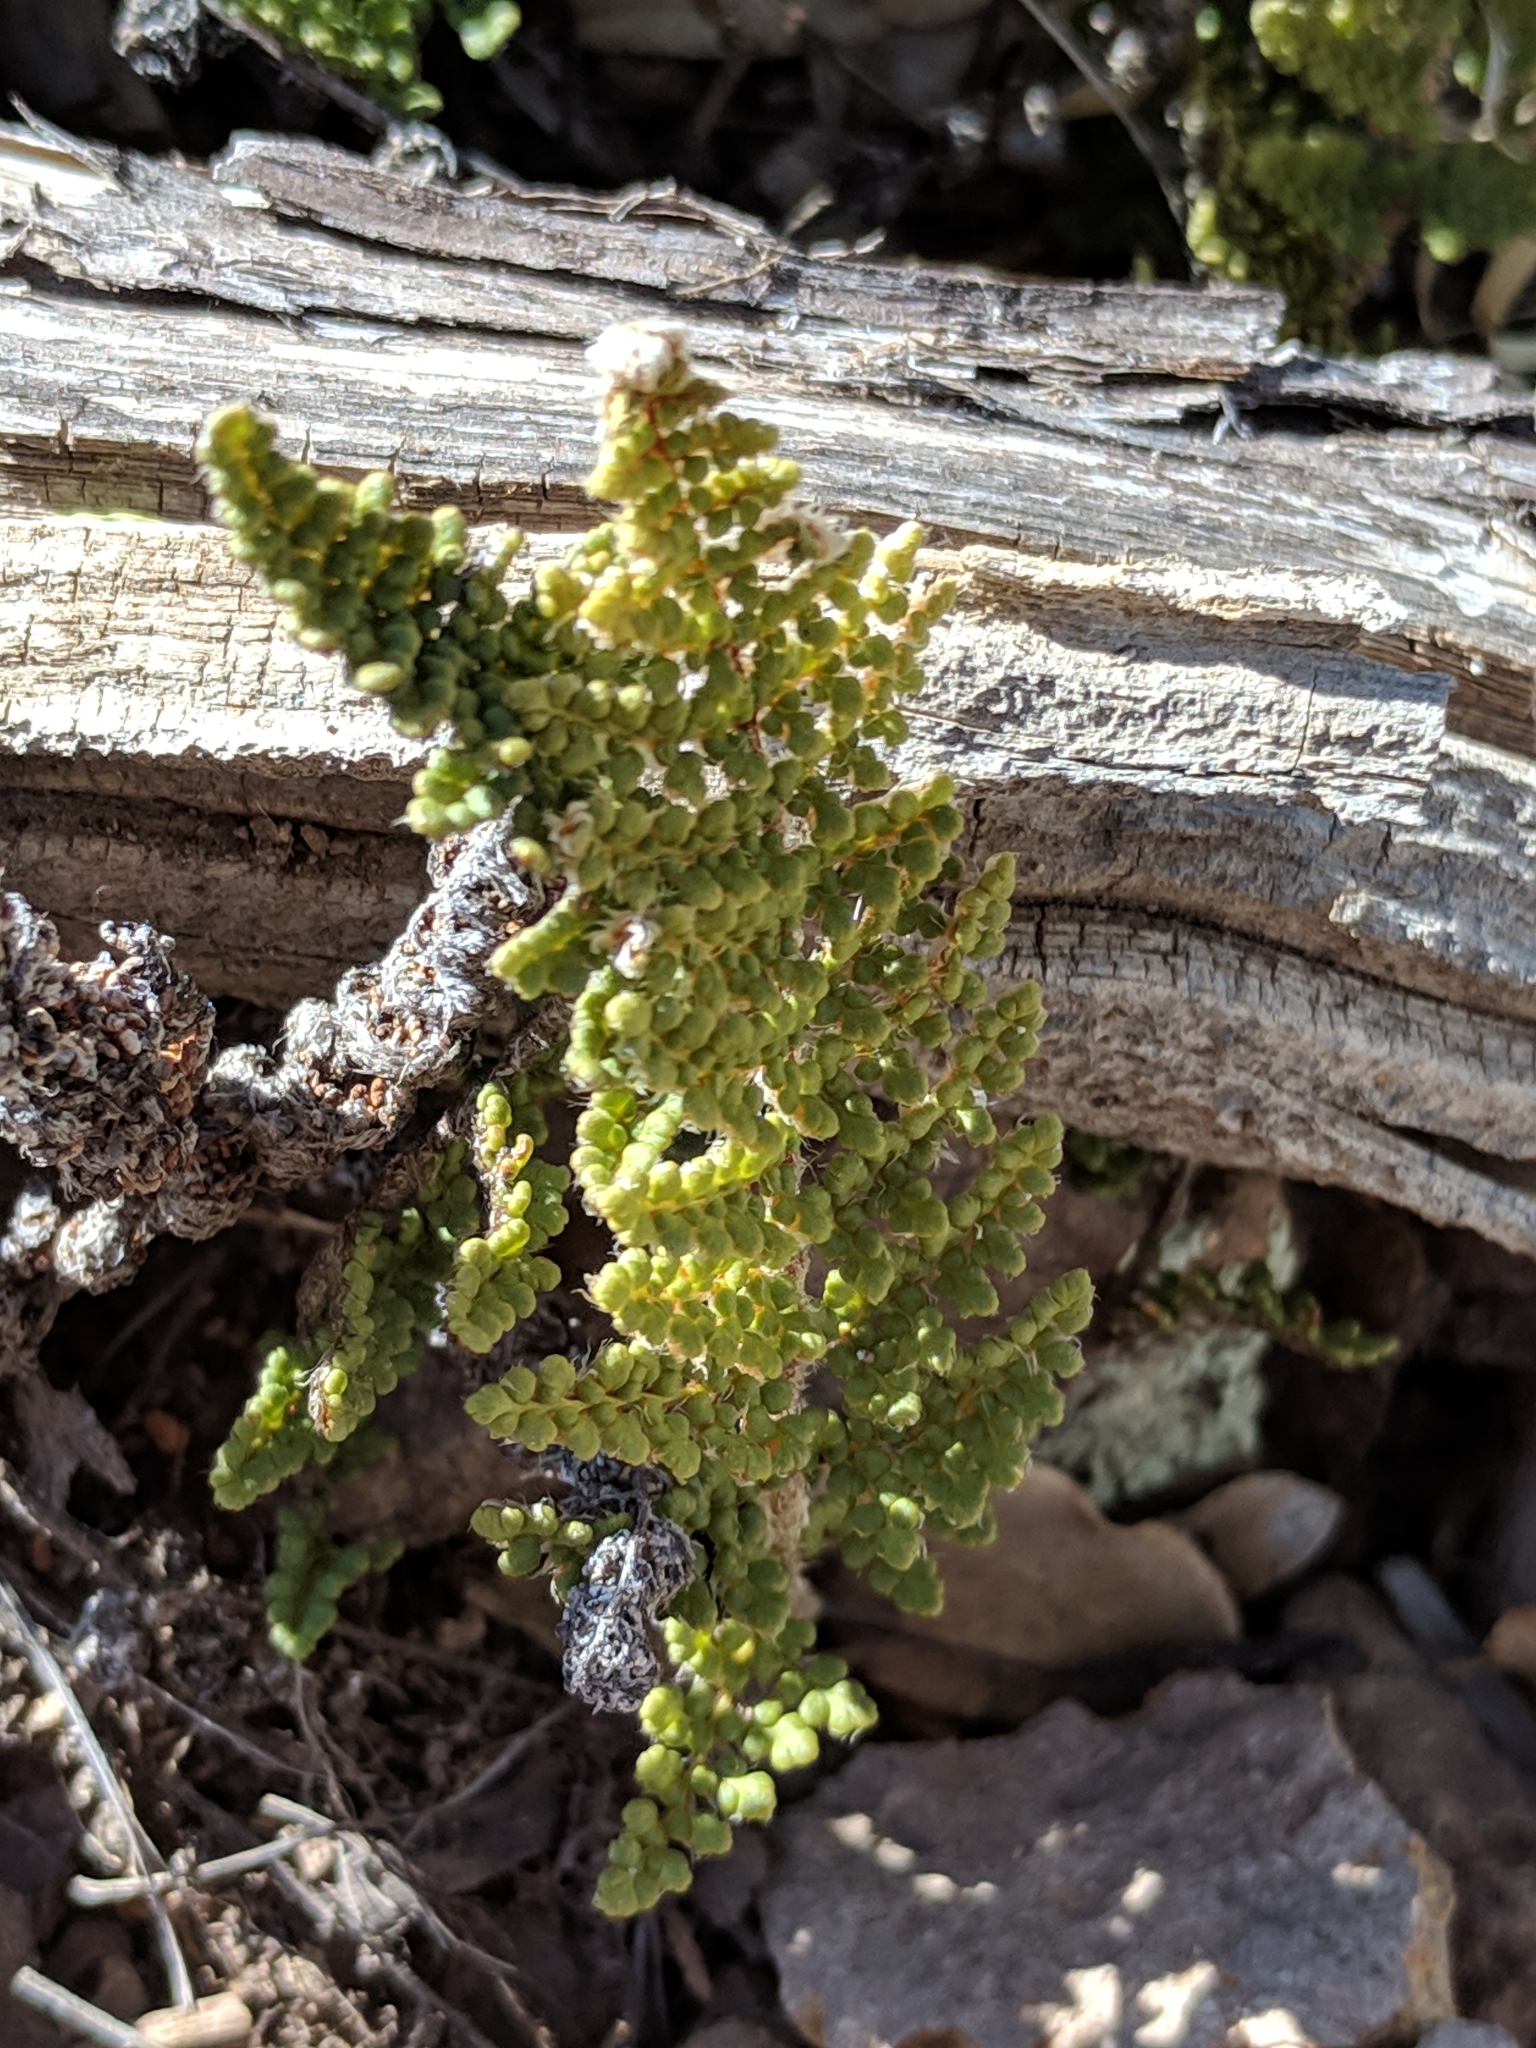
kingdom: Plantae
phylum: Tracheophyta
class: Polypodiopsida
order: Polypodiales
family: Pteridaceae
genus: Myriopteris
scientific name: Myriopteris fendleri
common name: Fendler's lip fern
